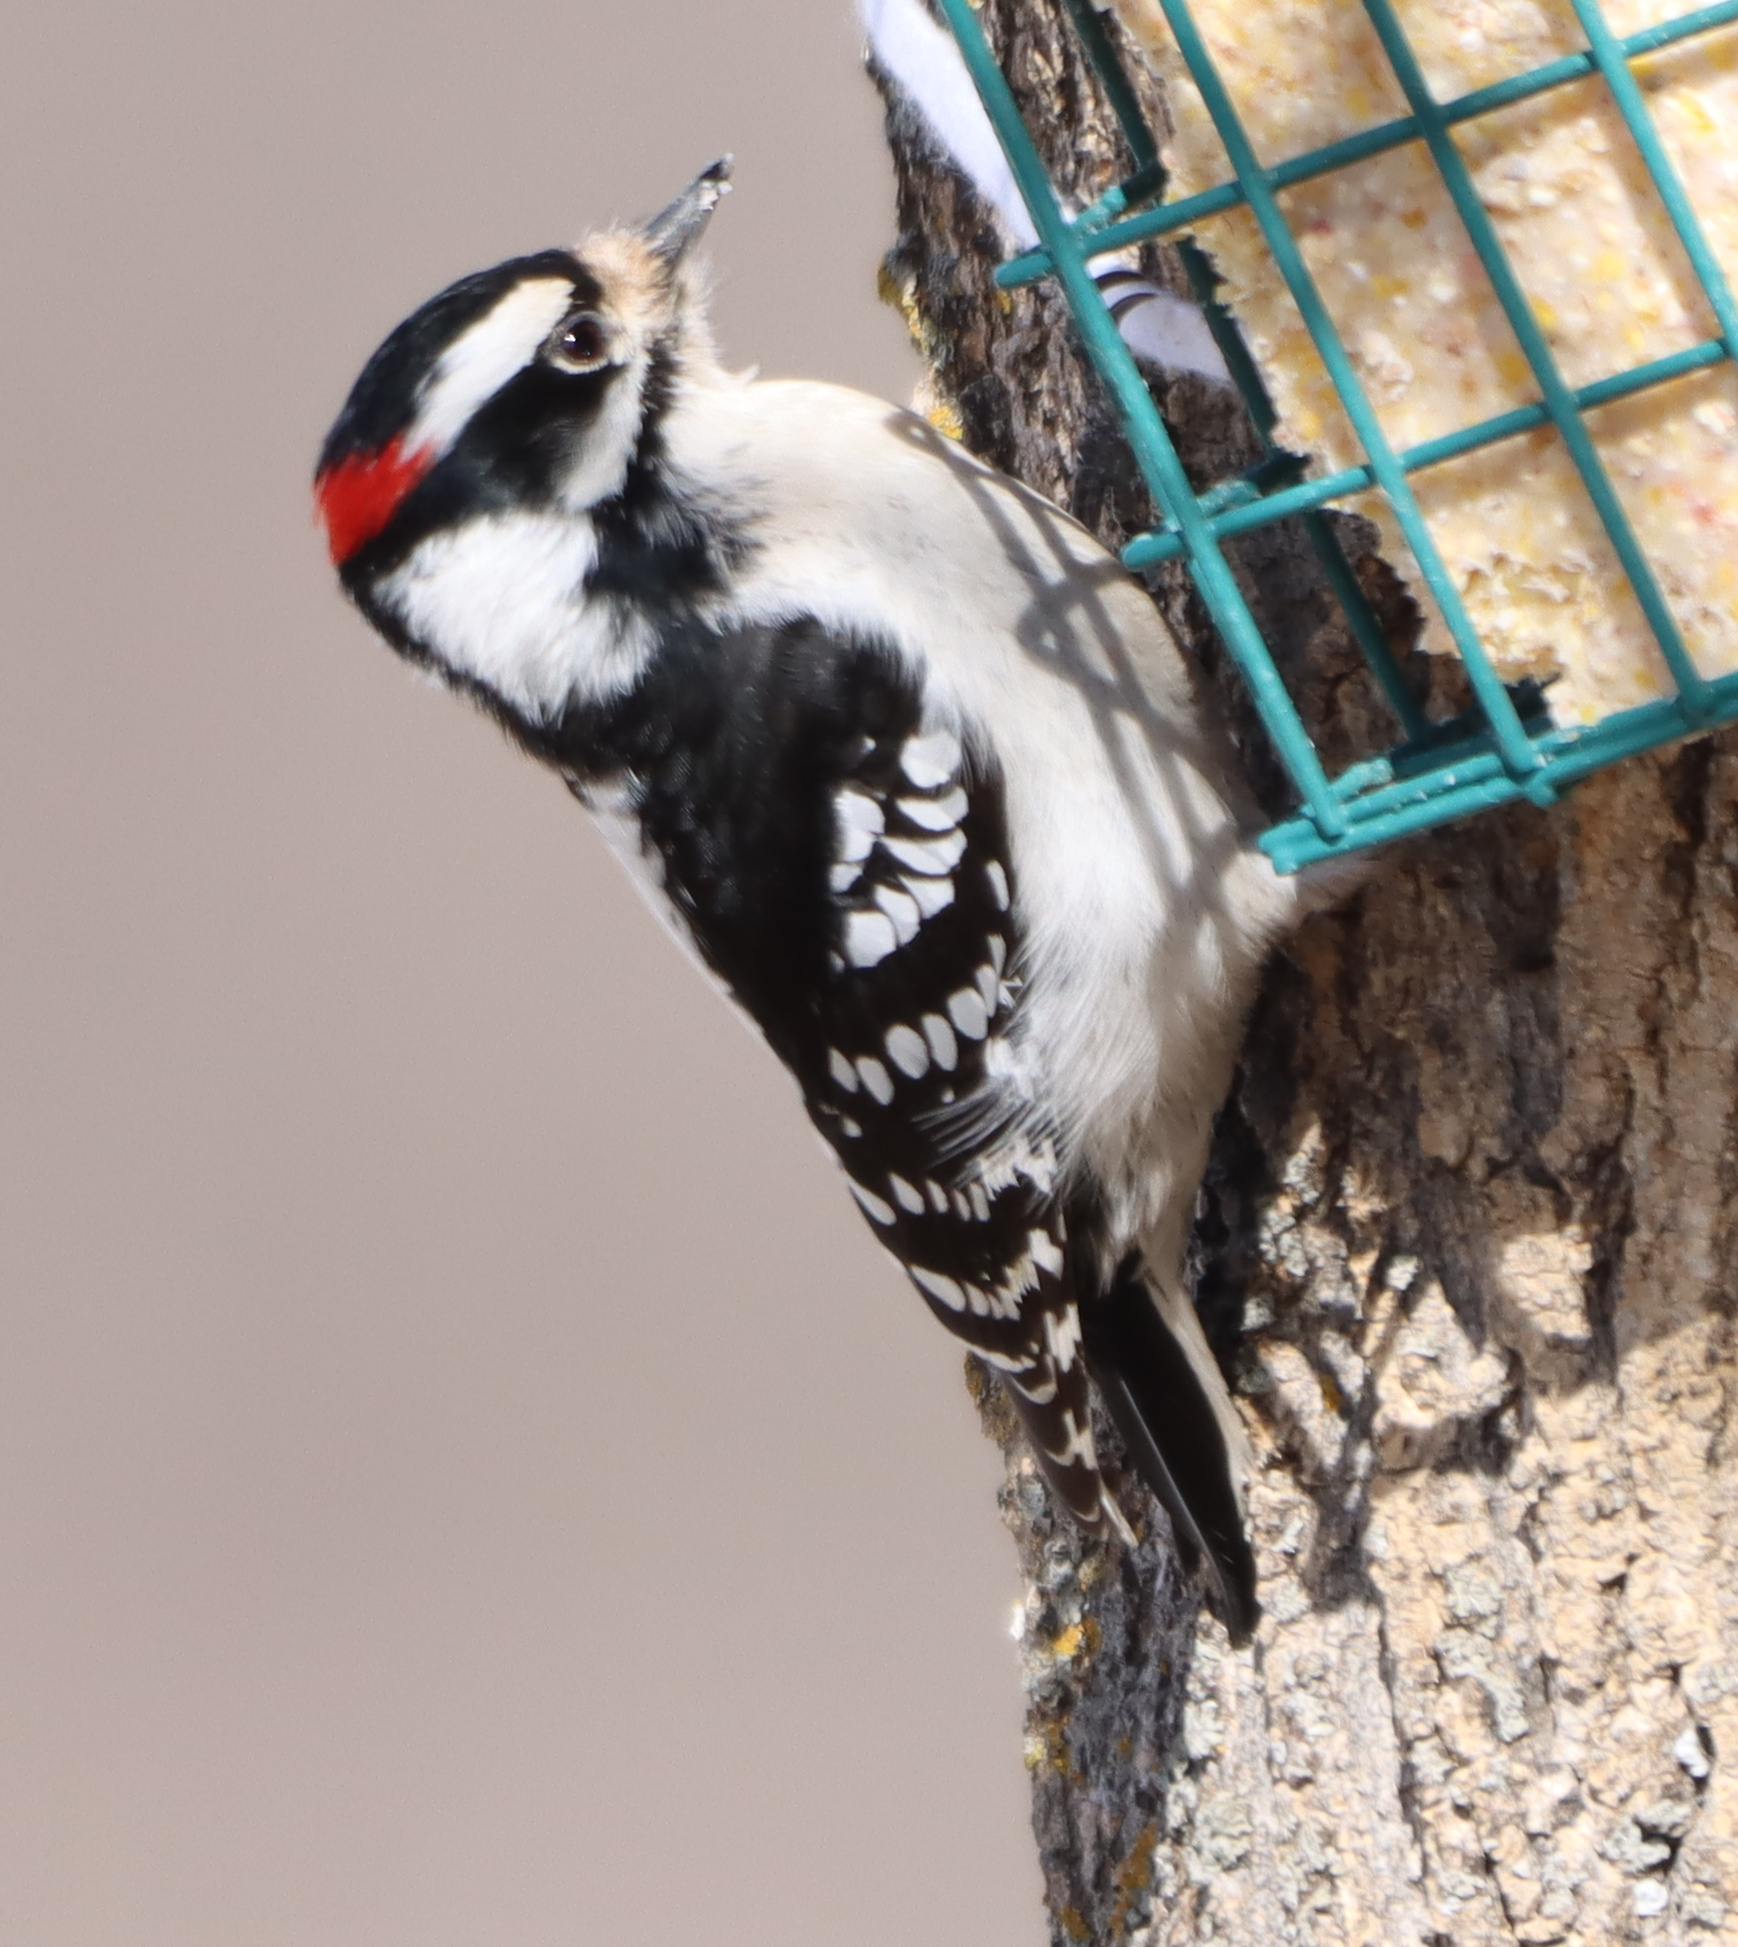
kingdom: Animalia
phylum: Chordata
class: Aves
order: Piciformes
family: Picidae
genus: Dryobates
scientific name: Dryobates pubescens
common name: Downy woodpecker
